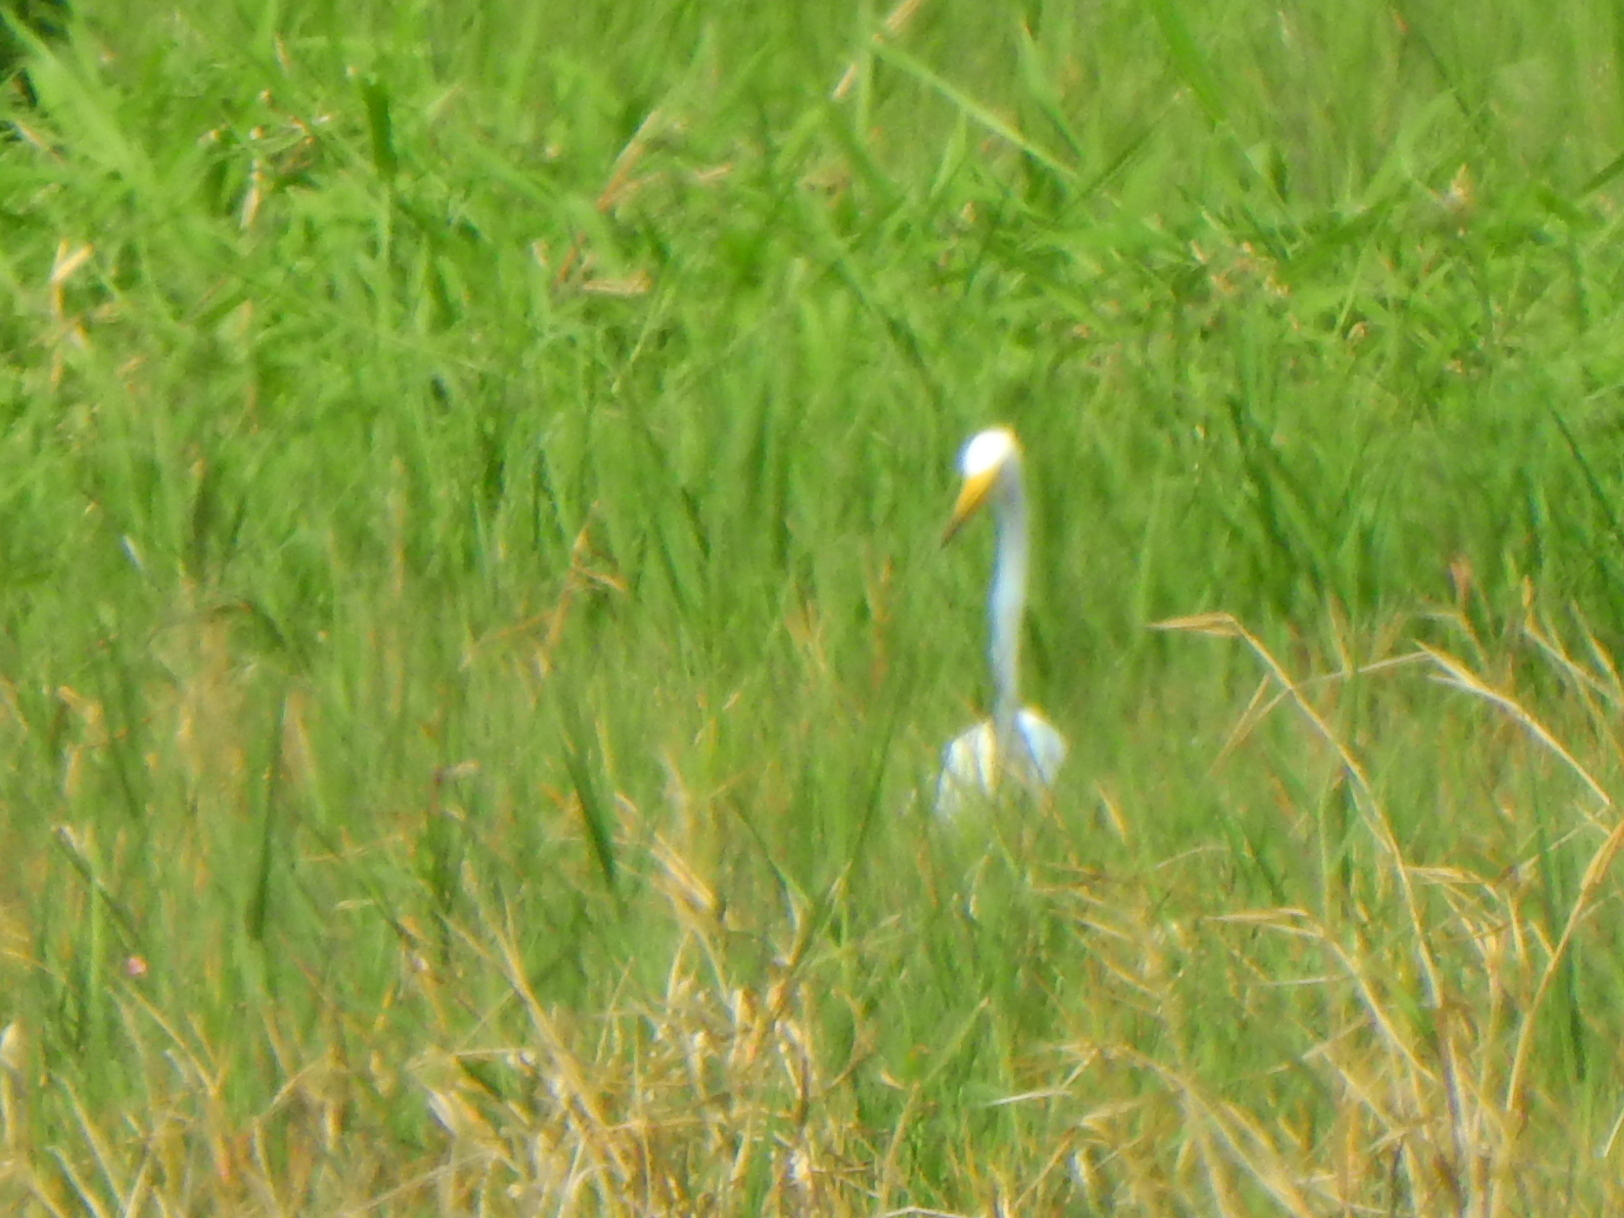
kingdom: Animalia
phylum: Chordata
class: Aves
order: Pelecaniformes
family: Ardeidae
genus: Egretta
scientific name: Egretta intermedia
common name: Intermediate egret
